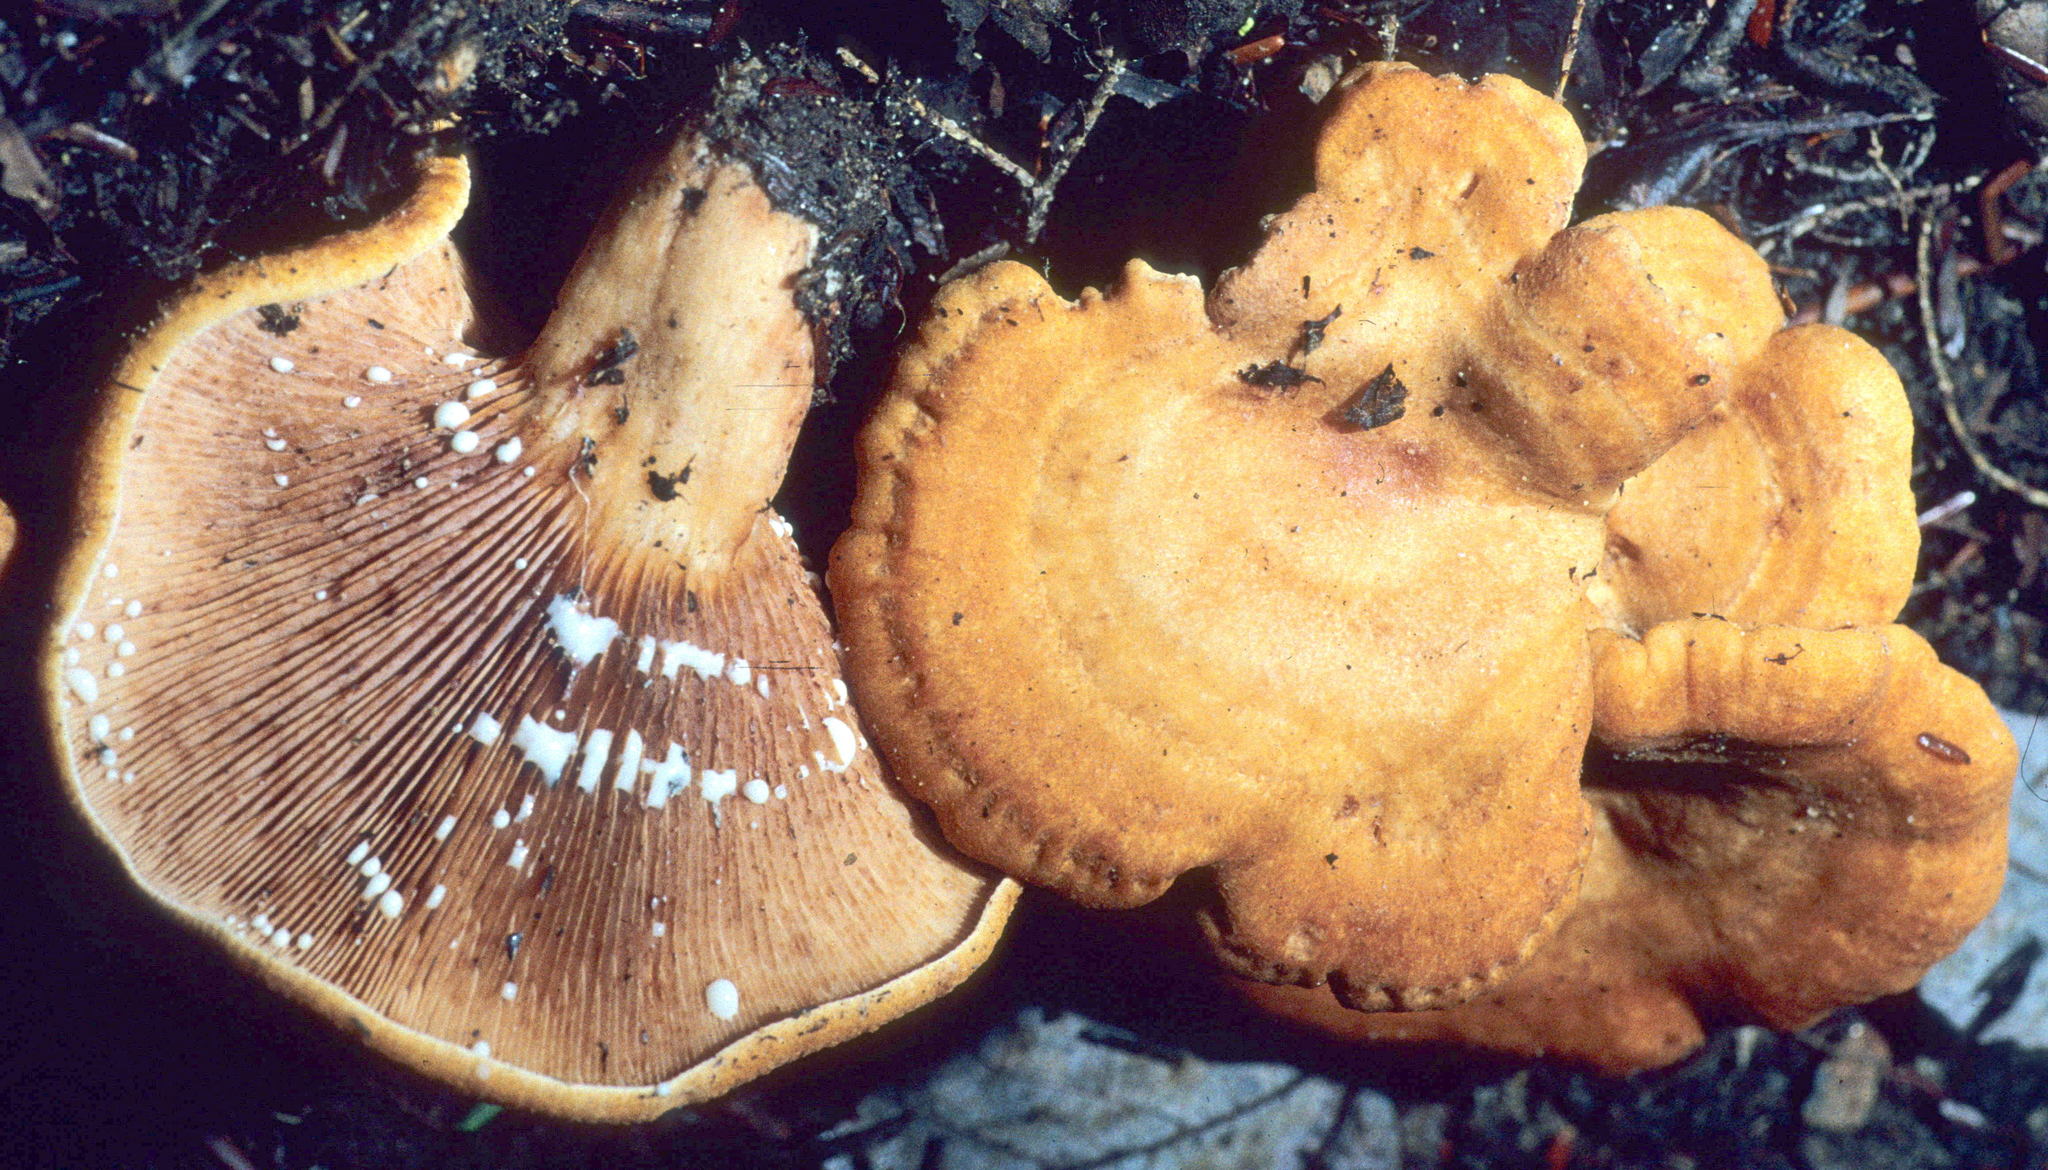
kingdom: Fungi
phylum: Basidiomycota
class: Agaricomycetes
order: Russulales
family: Russulaceae
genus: Lactarius
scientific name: Lactarius peckii
